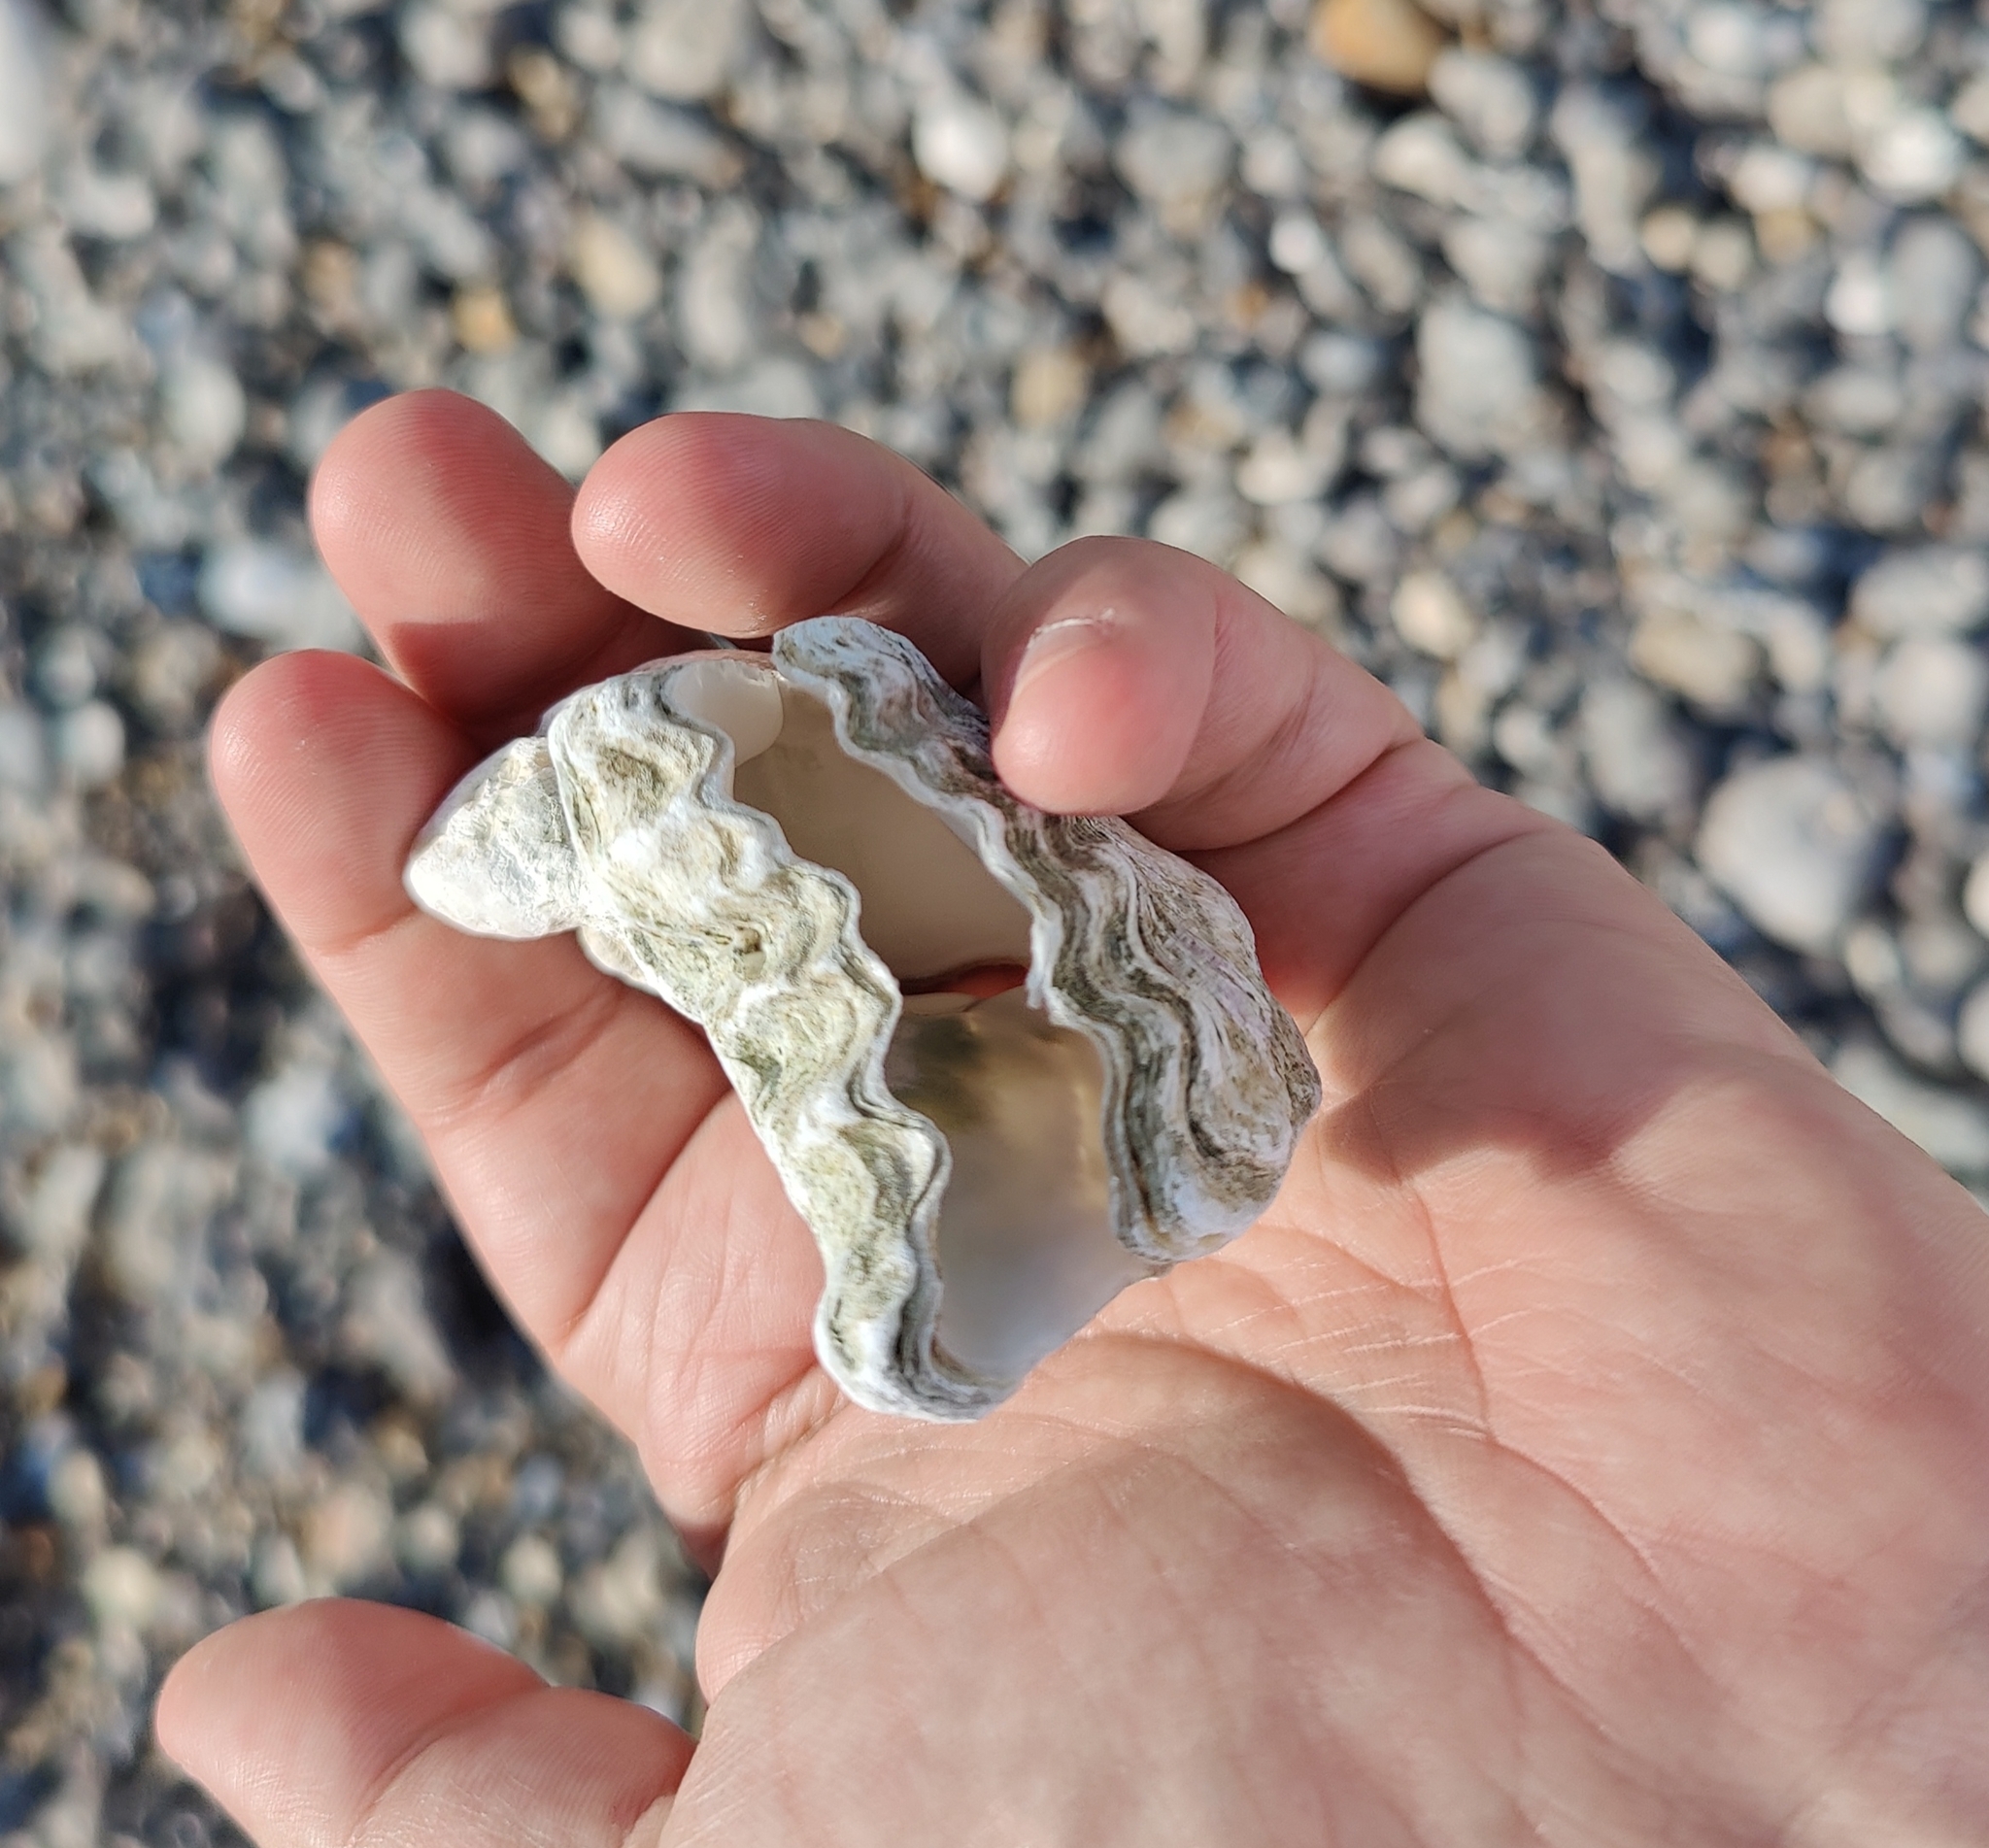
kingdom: Animalia
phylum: Mollusca
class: Bivalvia
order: Ostreida
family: Ostreidae
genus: Magallana
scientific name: Magallana gigas
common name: Pacific oyster
